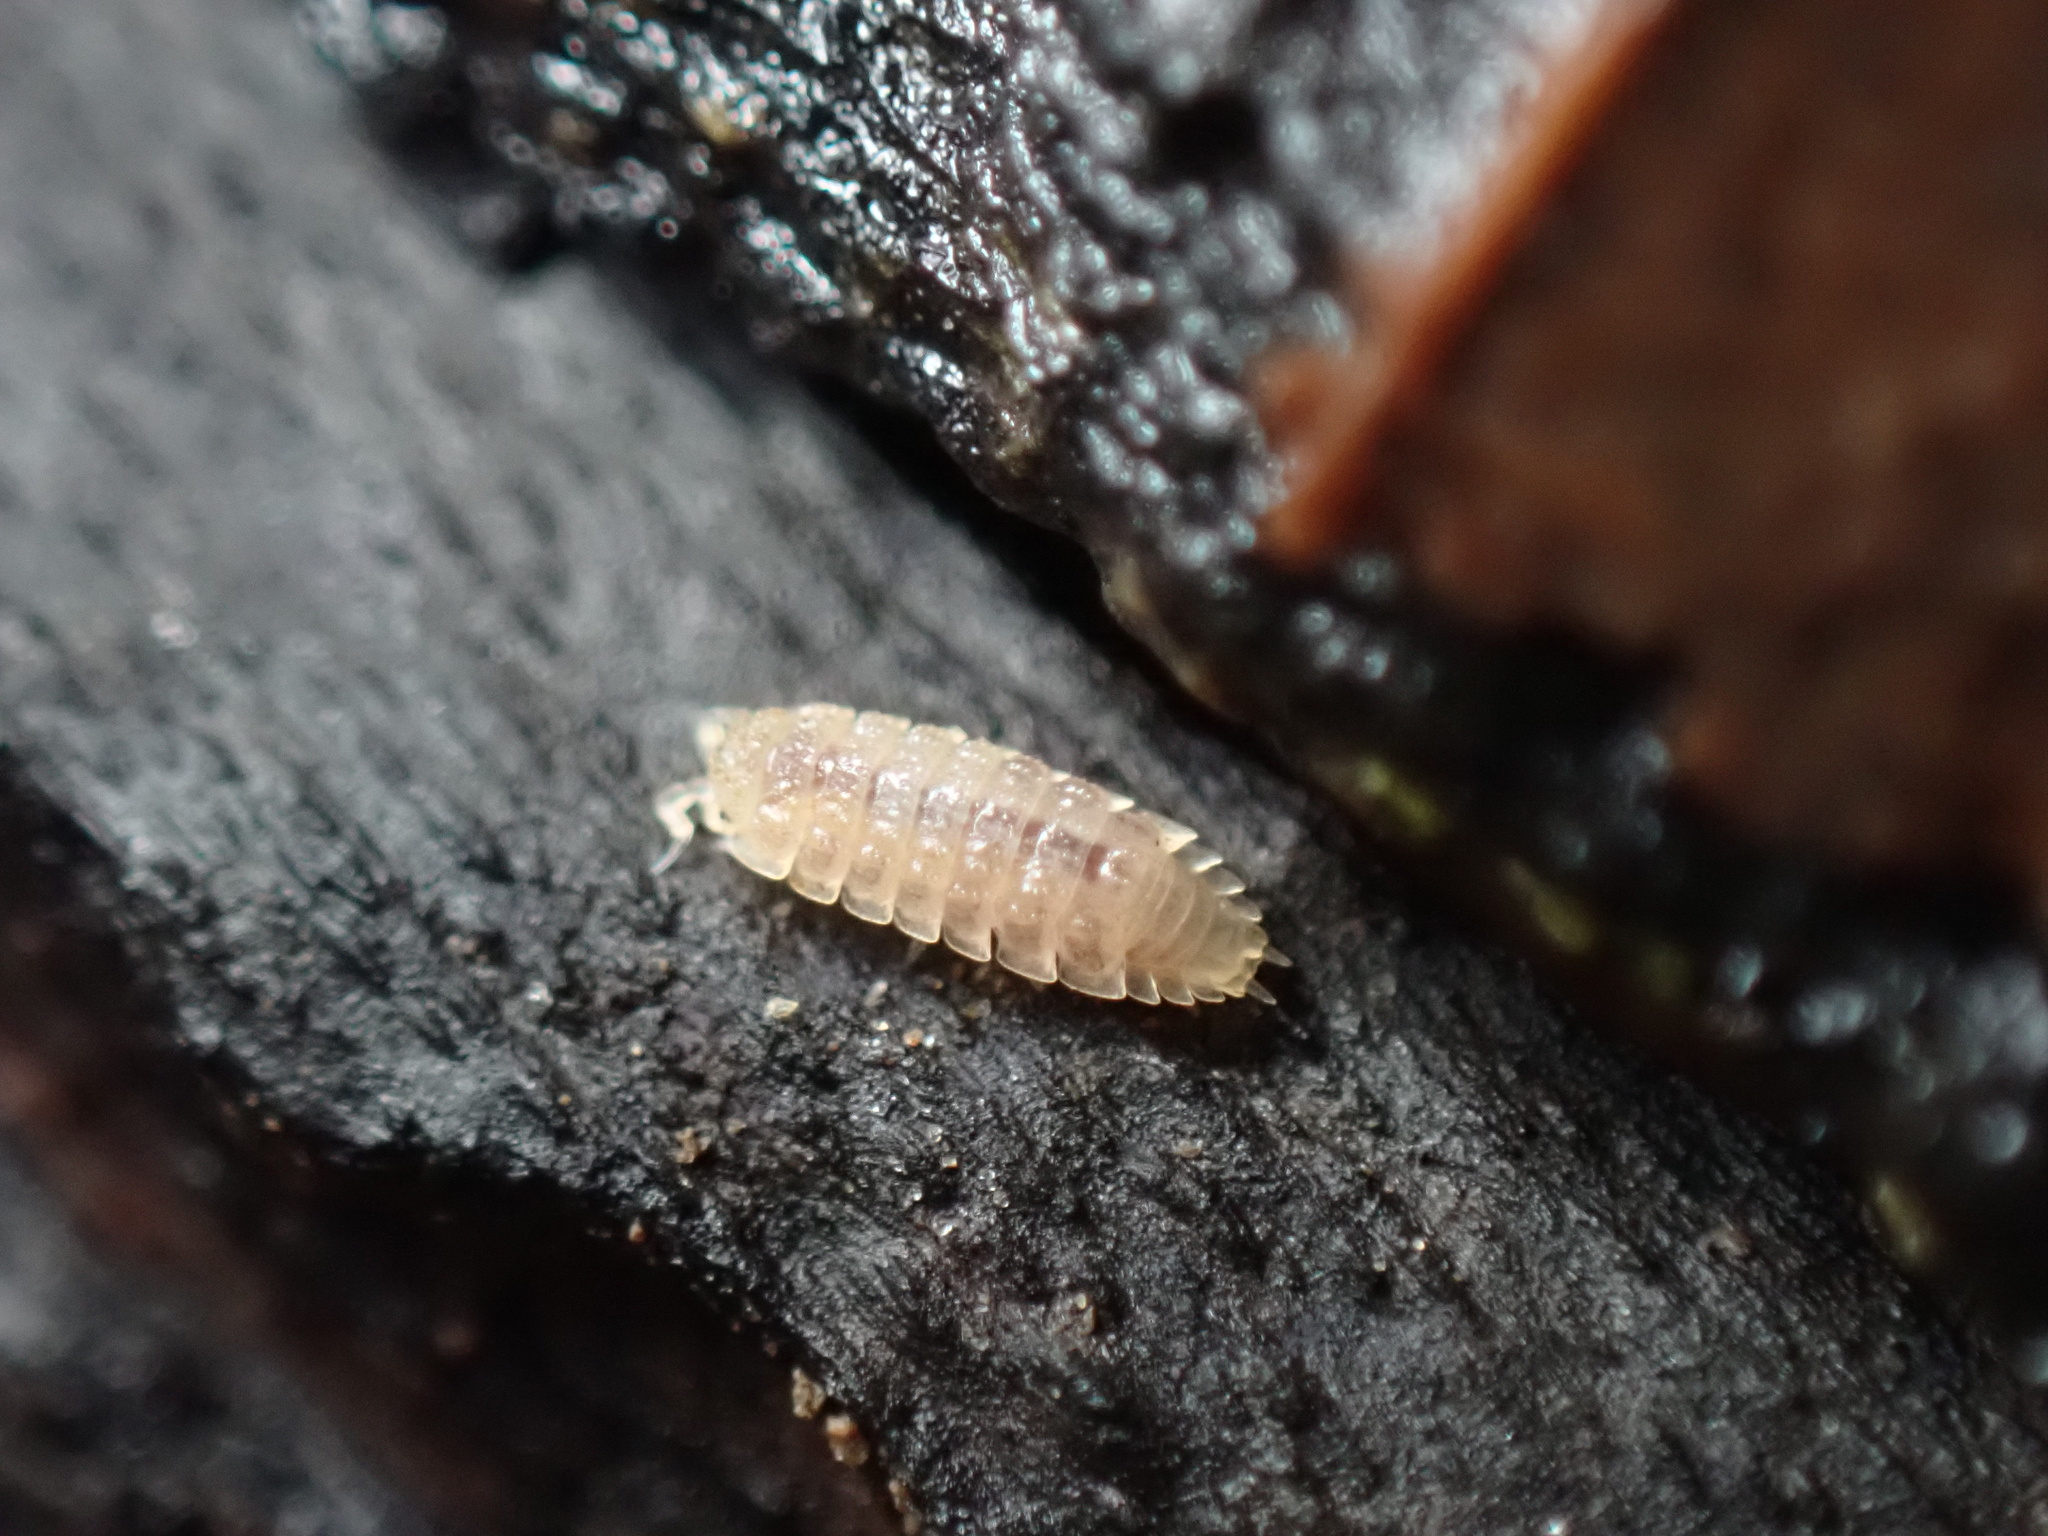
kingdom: Animalia
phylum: Arthropoda
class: Malacostraca
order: Isopoda
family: Trichoniscidae
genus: Haplophthalmus
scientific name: Haplophthalmus danicus
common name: Pillbug
